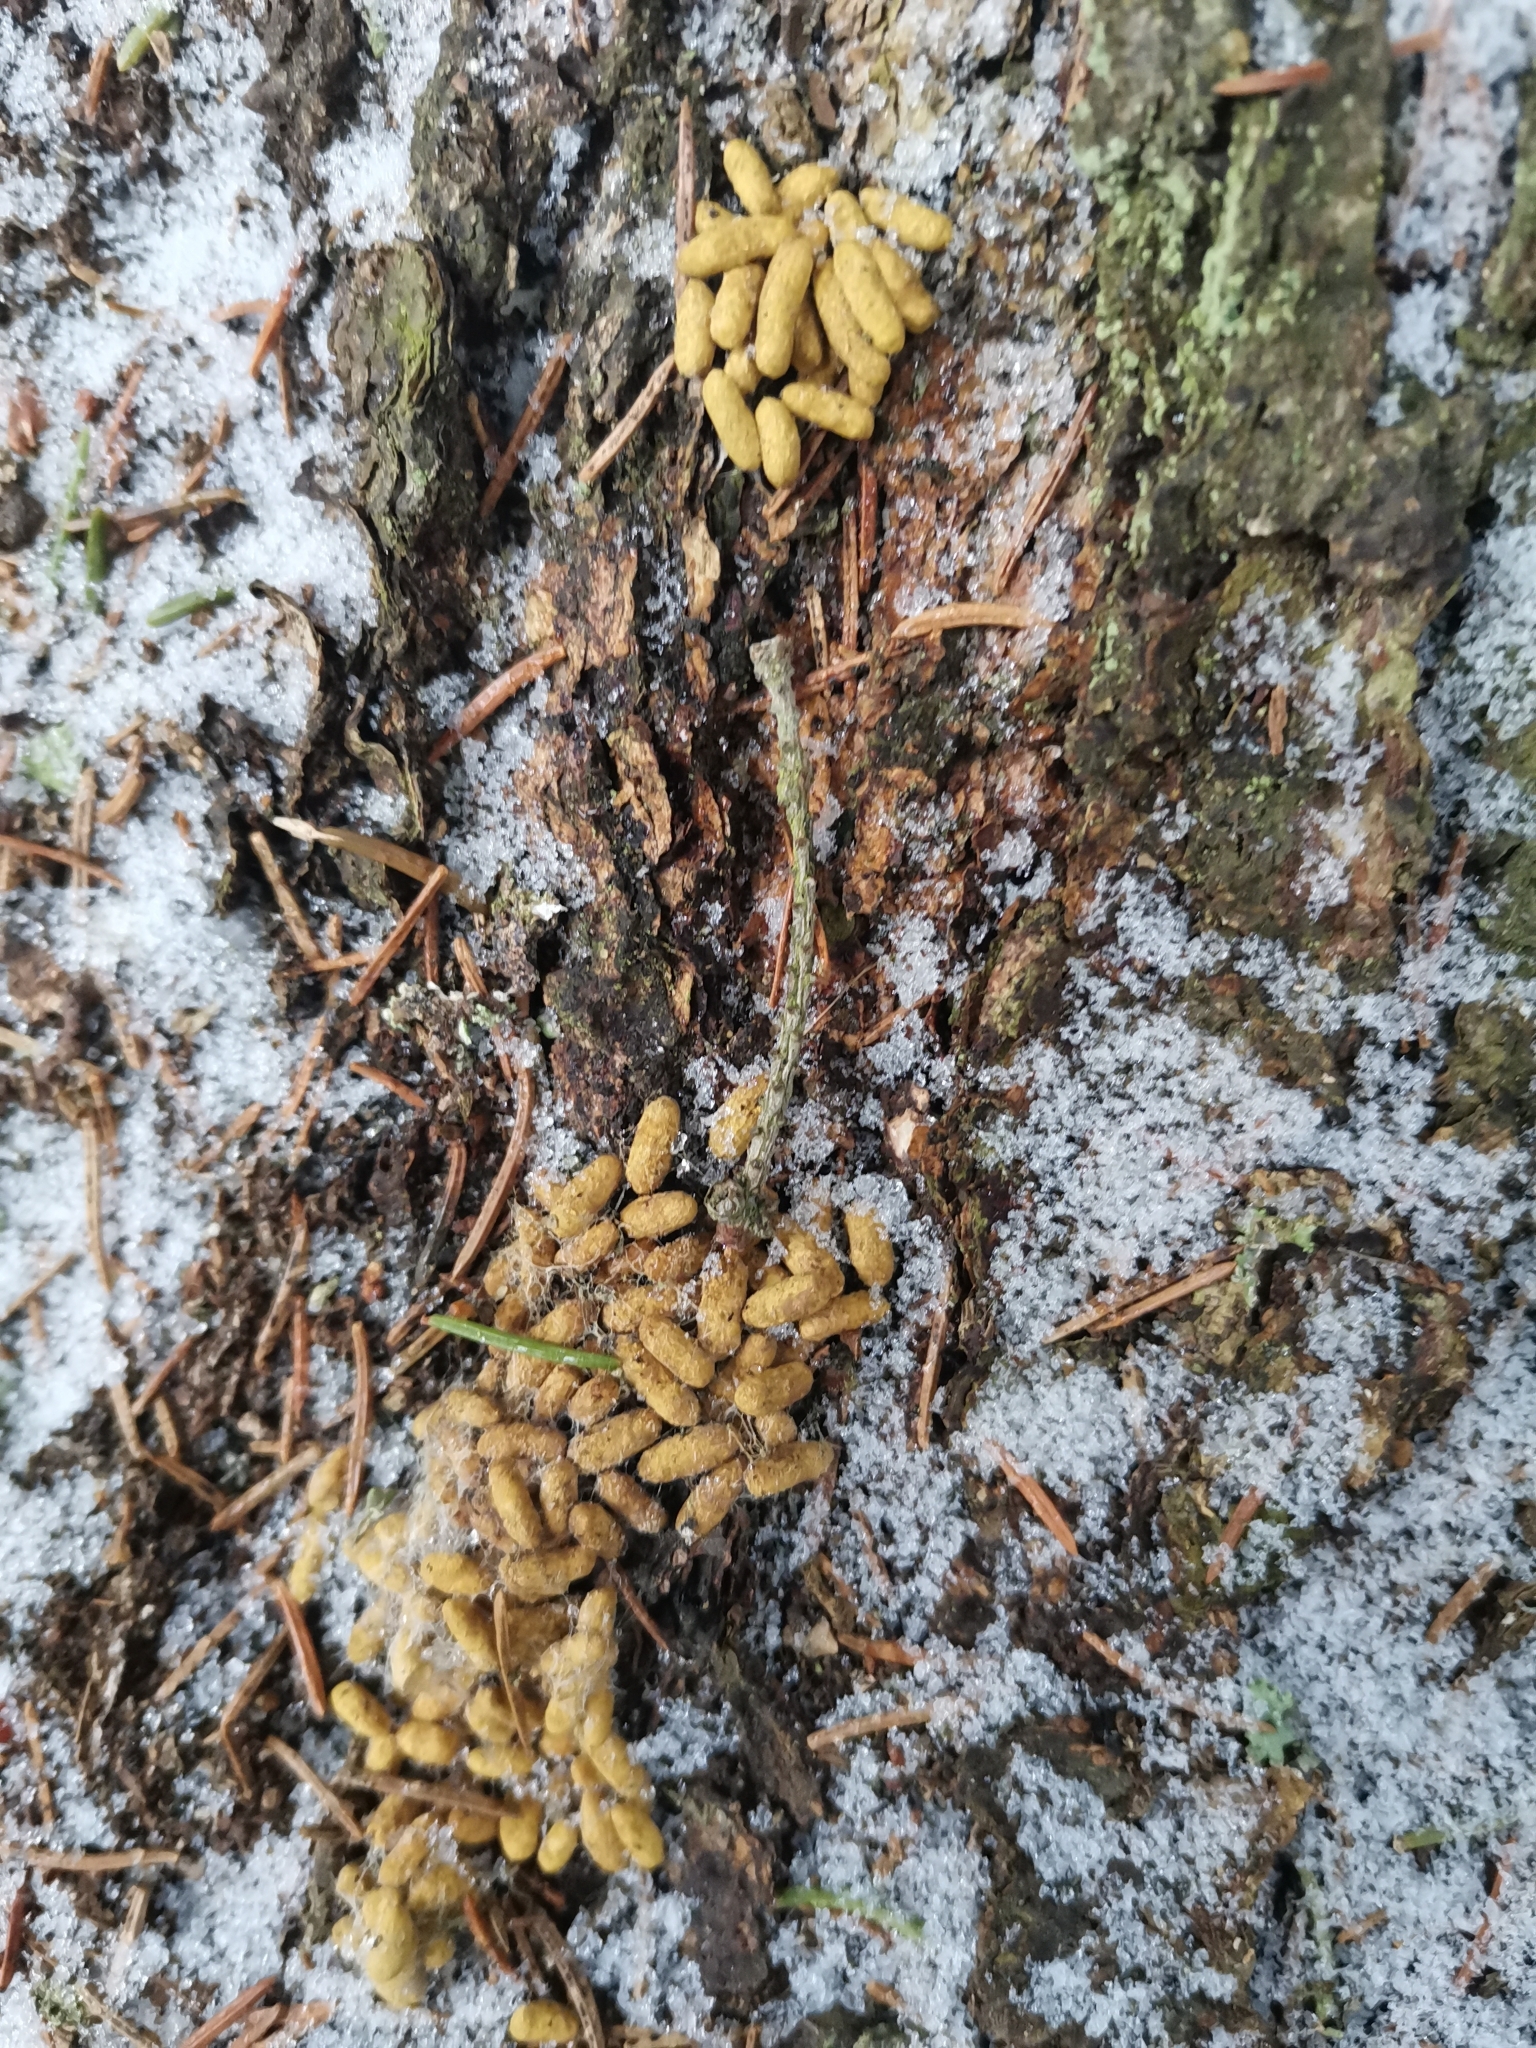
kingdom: Animalia
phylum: Chordata
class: Mammalia
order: Rodentia
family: Sciuridae
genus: Pteromys
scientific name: Pteromys volans
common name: Siberian flying squirrel
